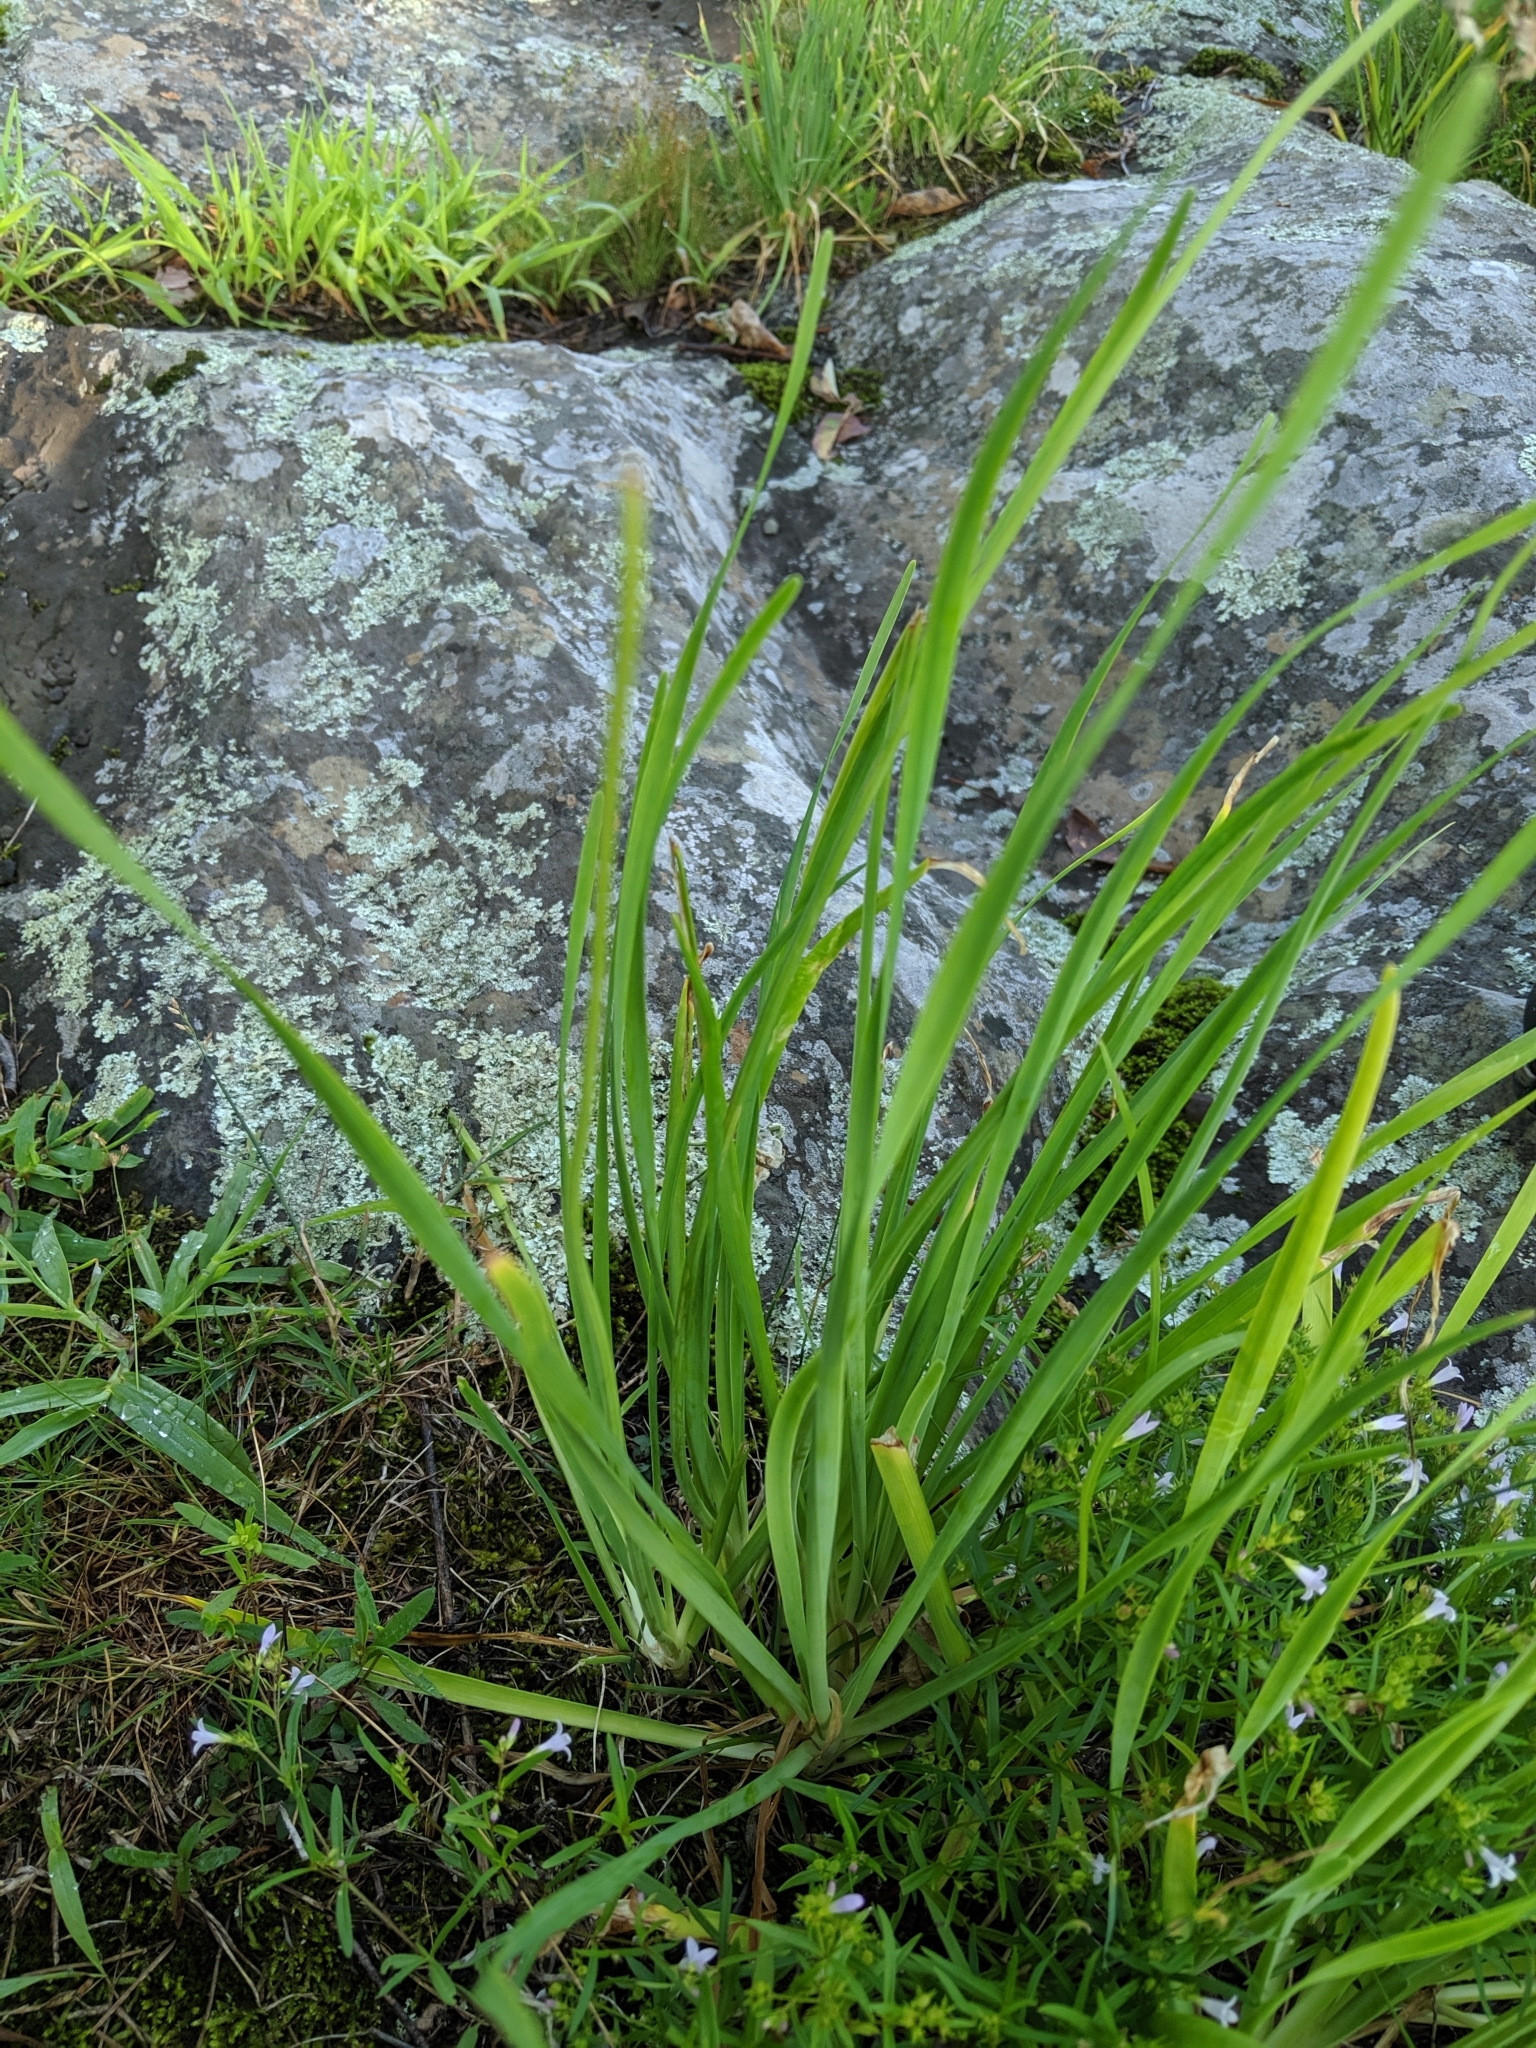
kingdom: Plantae
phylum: Tracheophyta
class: Liliopsida
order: Asparagales
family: Amaryllidaceae
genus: Allium
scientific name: Allium cernuum
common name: Nodding onion
